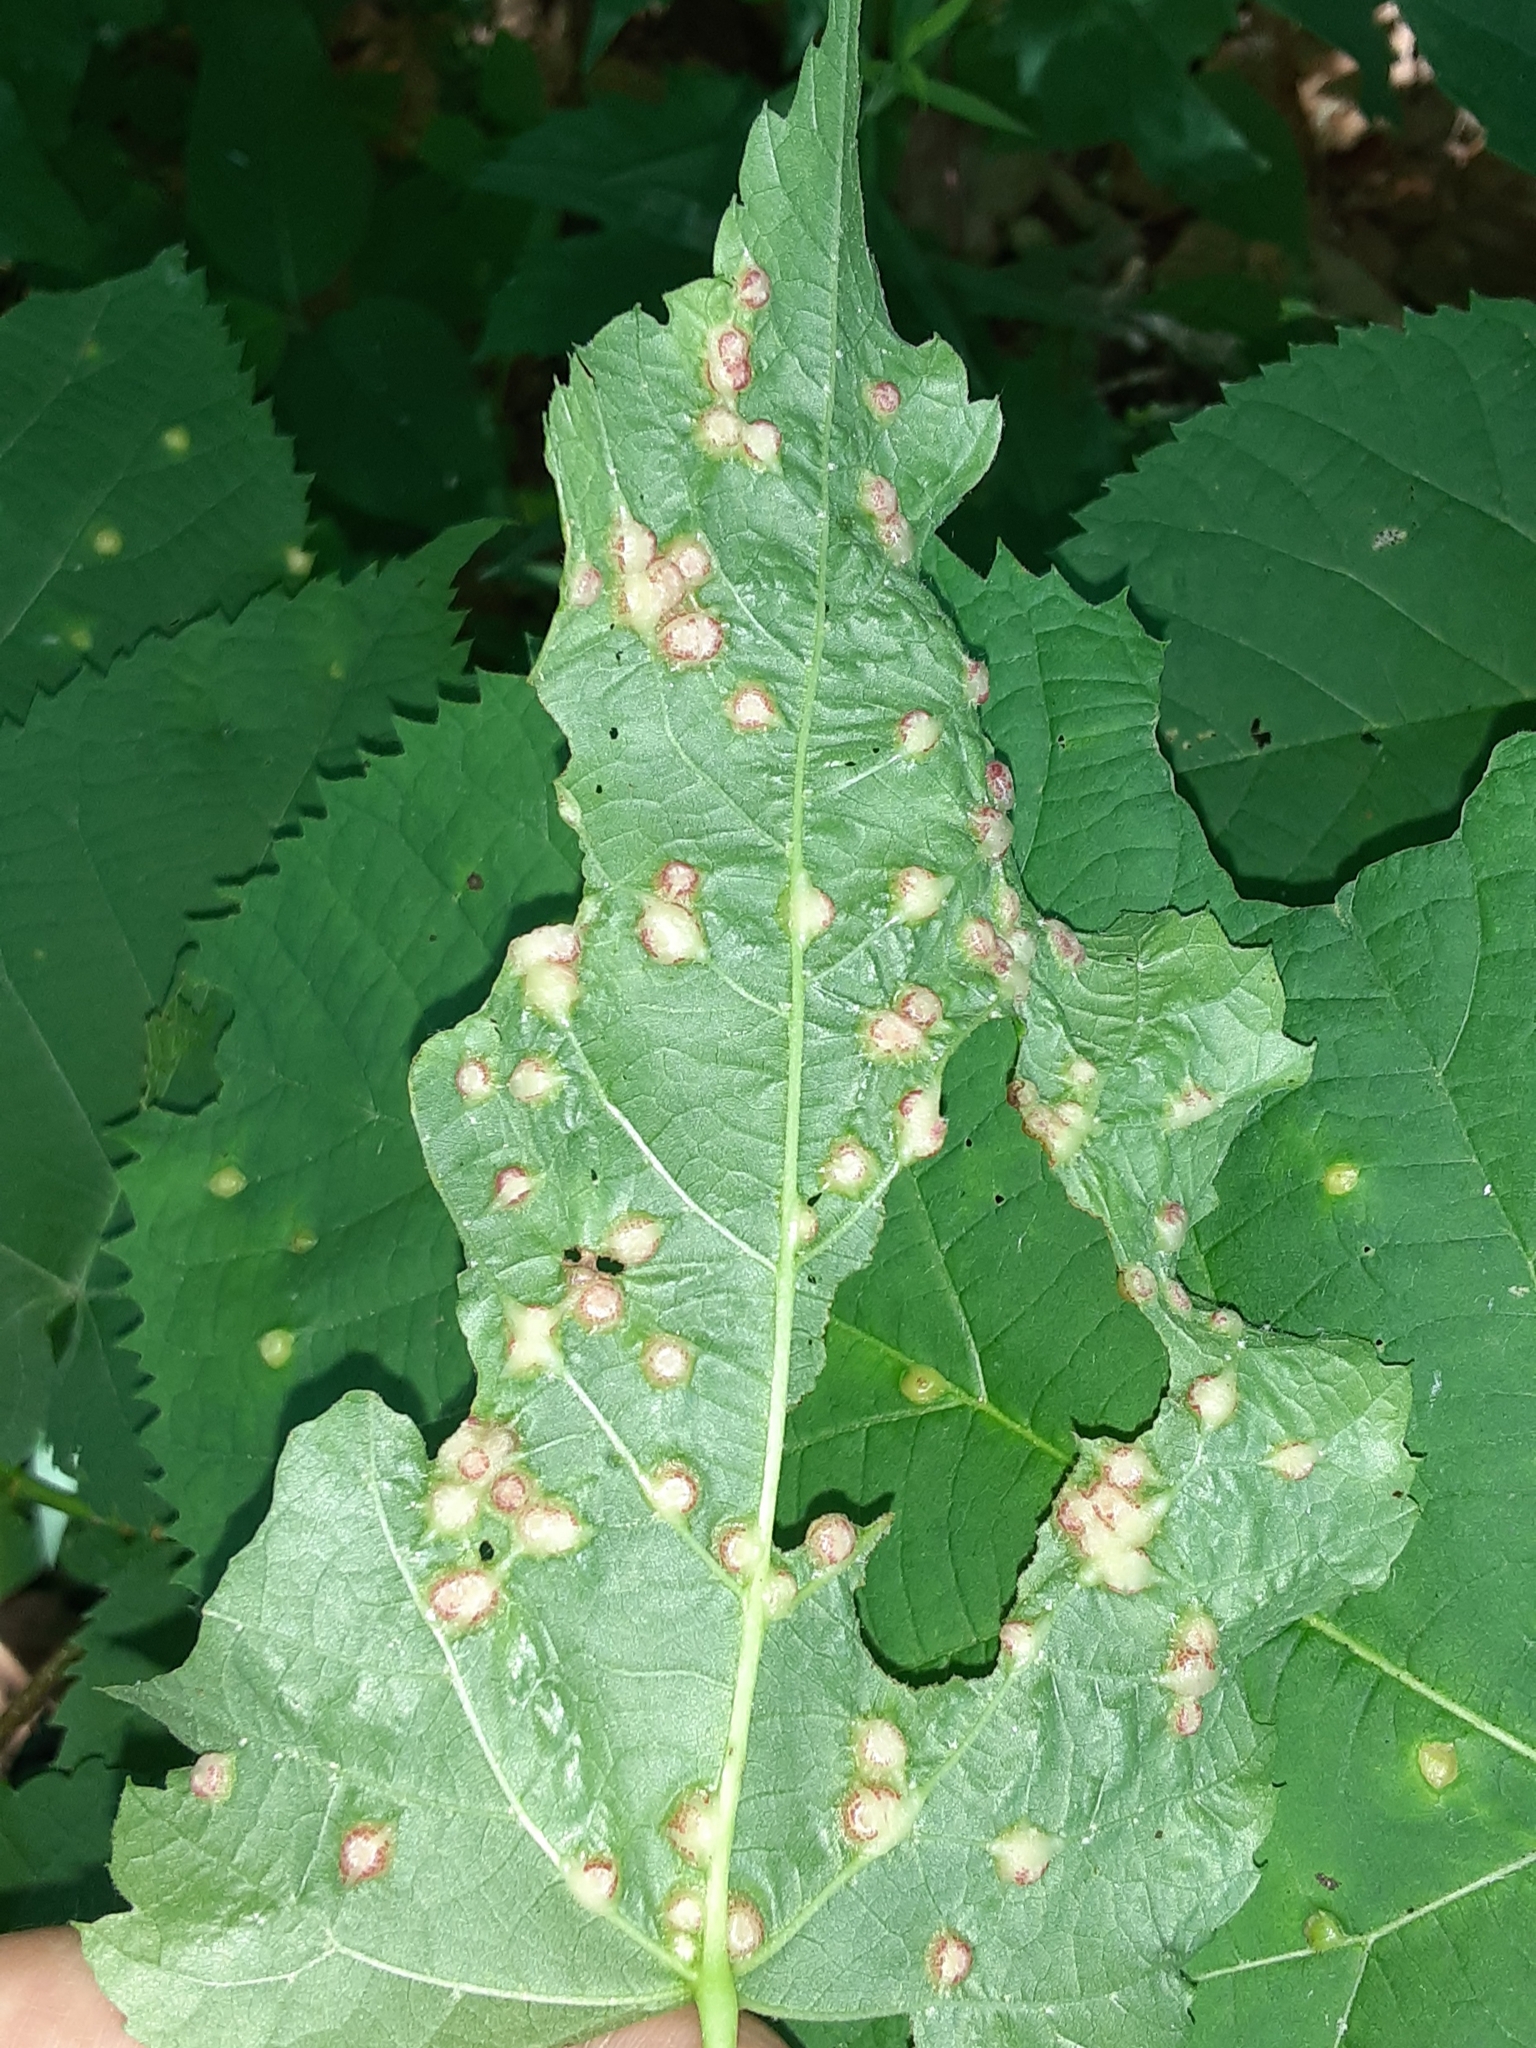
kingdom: Animalia
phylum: Arthropoda
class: Insecta
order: Diptera
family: Cecidomyiidae
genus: Contarinia
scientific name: Contarinia verrucicola
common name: Linden wart gall midge
